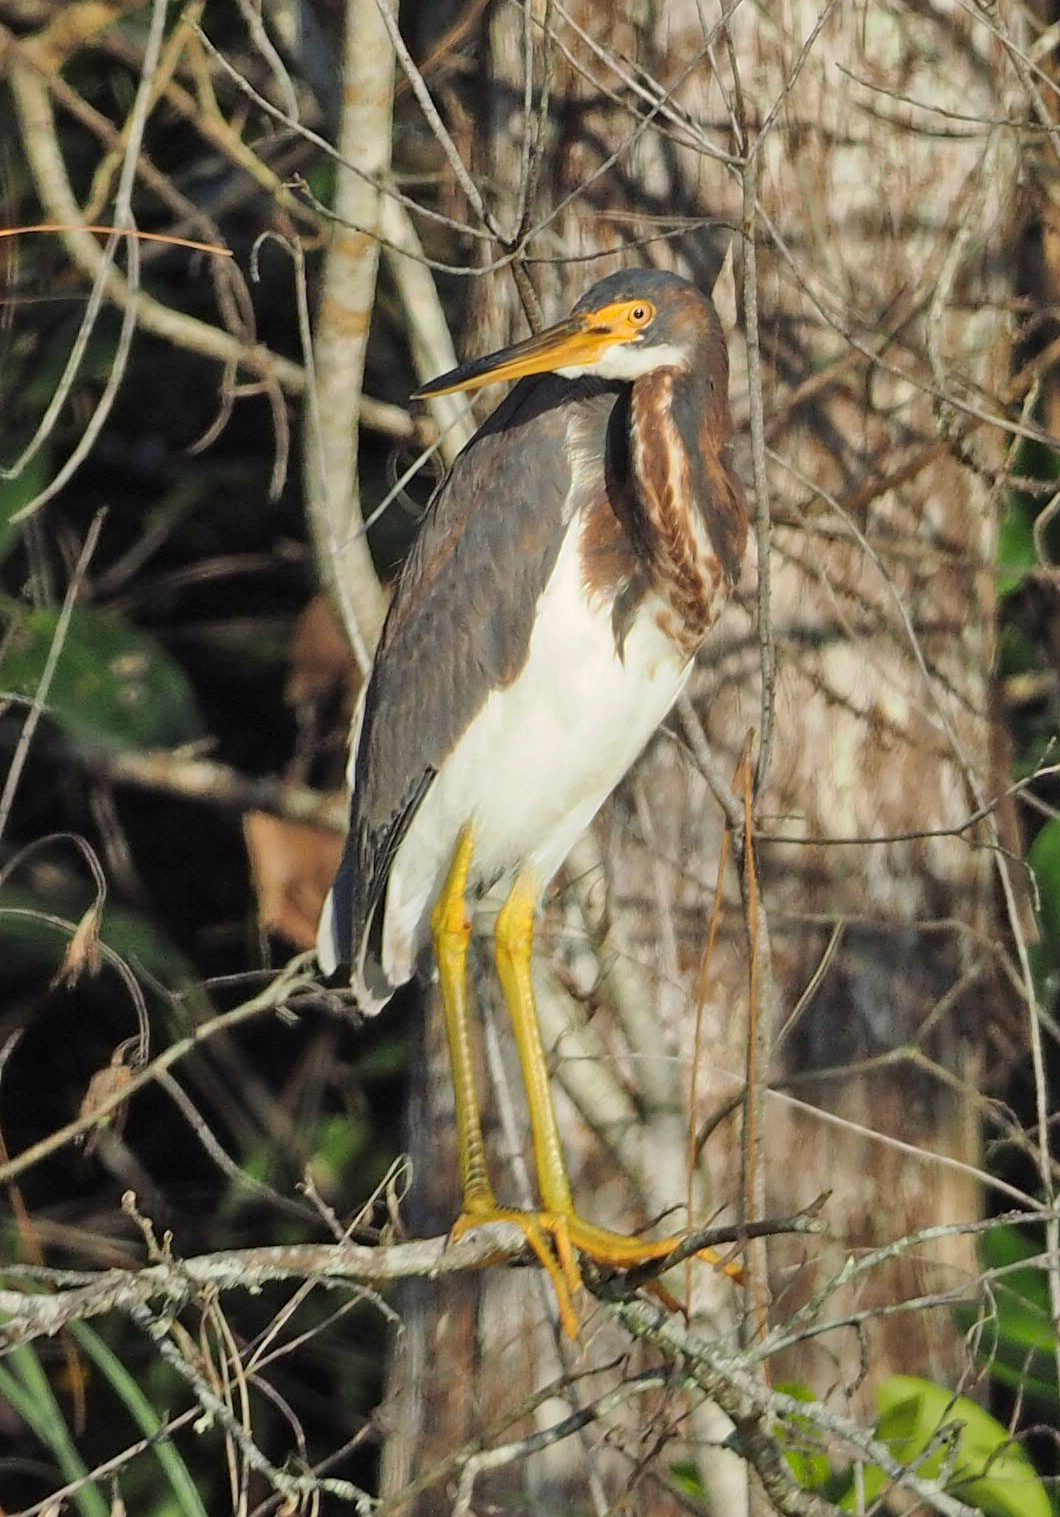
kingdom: Animalia
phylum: Chordata
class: Aves
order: Pelecaniformes
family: Ardeidae
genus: Egretta
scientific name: Egretta tricolor
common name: Tricolored heron
